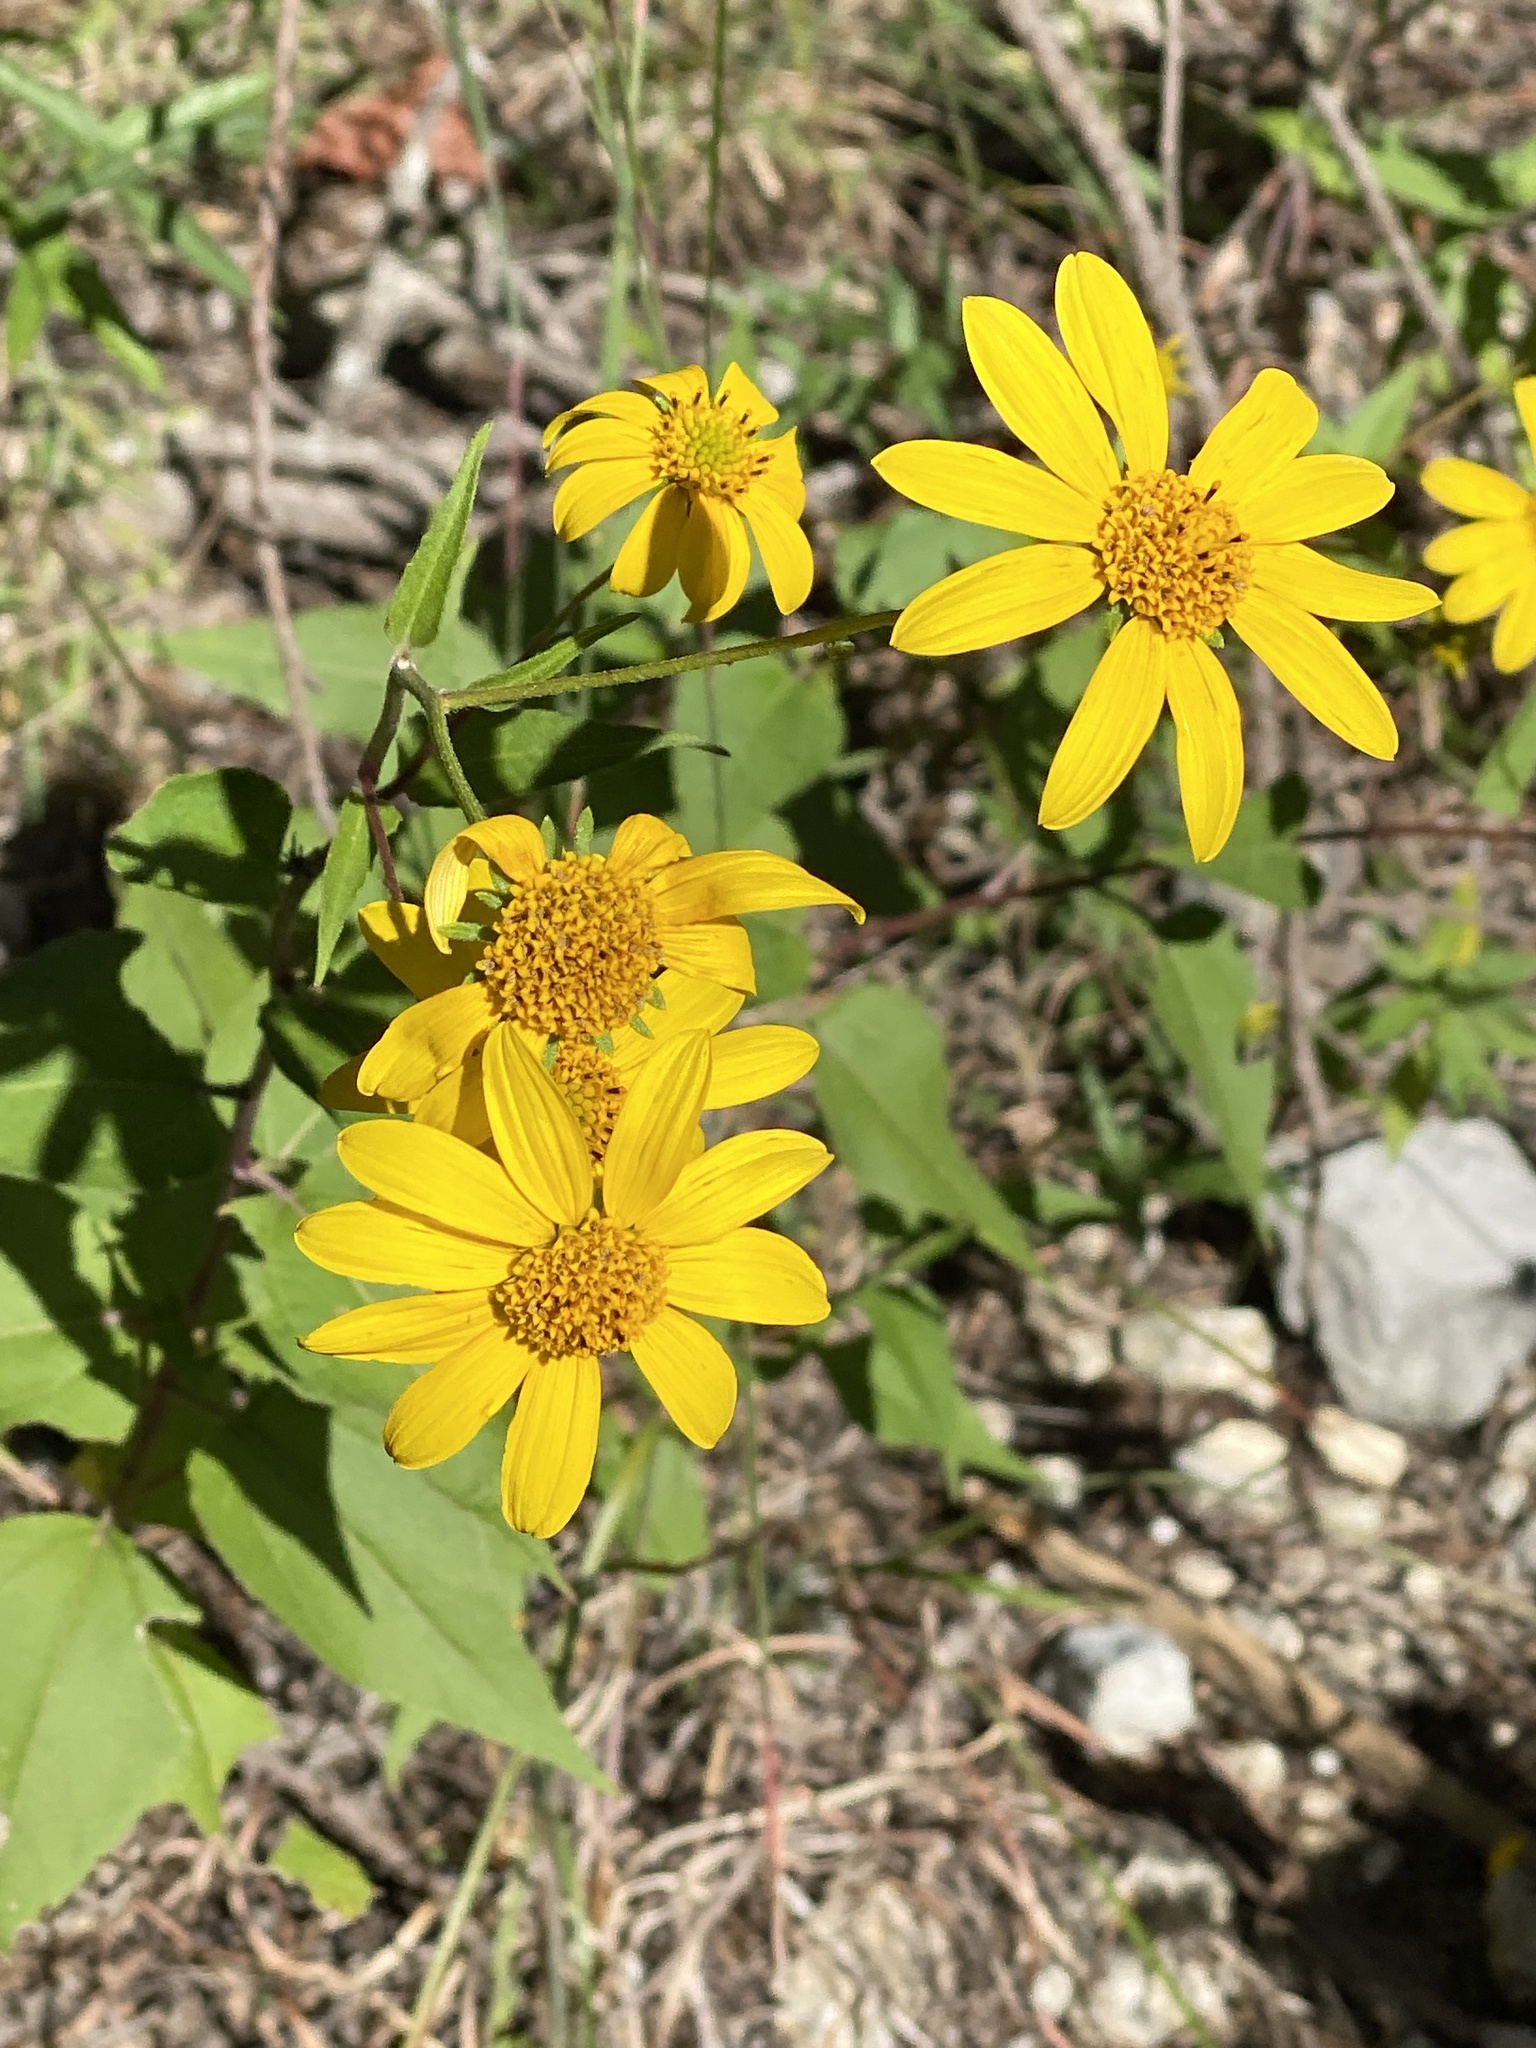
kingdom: Plantae
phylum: Tracheophyta
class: Magnoliopsida
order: Asterales
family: Asteraceae
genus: Viguiera
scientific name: Viguiera dentata
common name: Toothleaf
